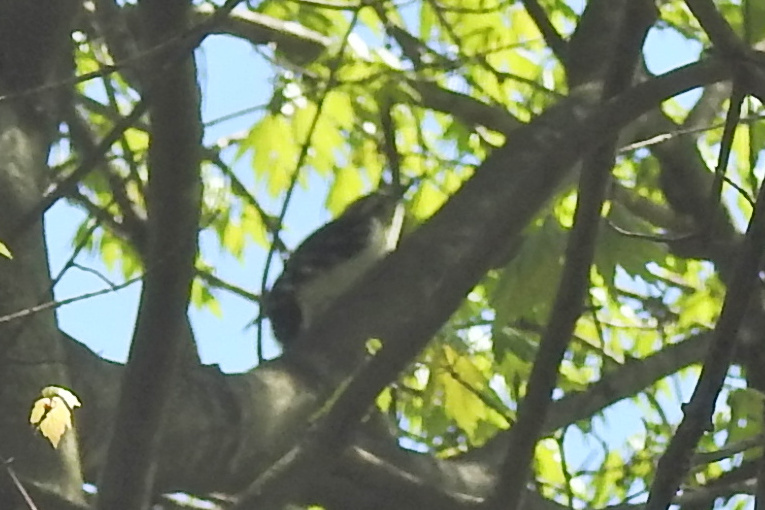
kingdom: Animalia
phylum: Chordata
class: Aves
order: Piciformes
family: Picidae
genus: Leuconotopicus
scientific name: Leuconotopicus villosus
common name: Hairy woodpecker
